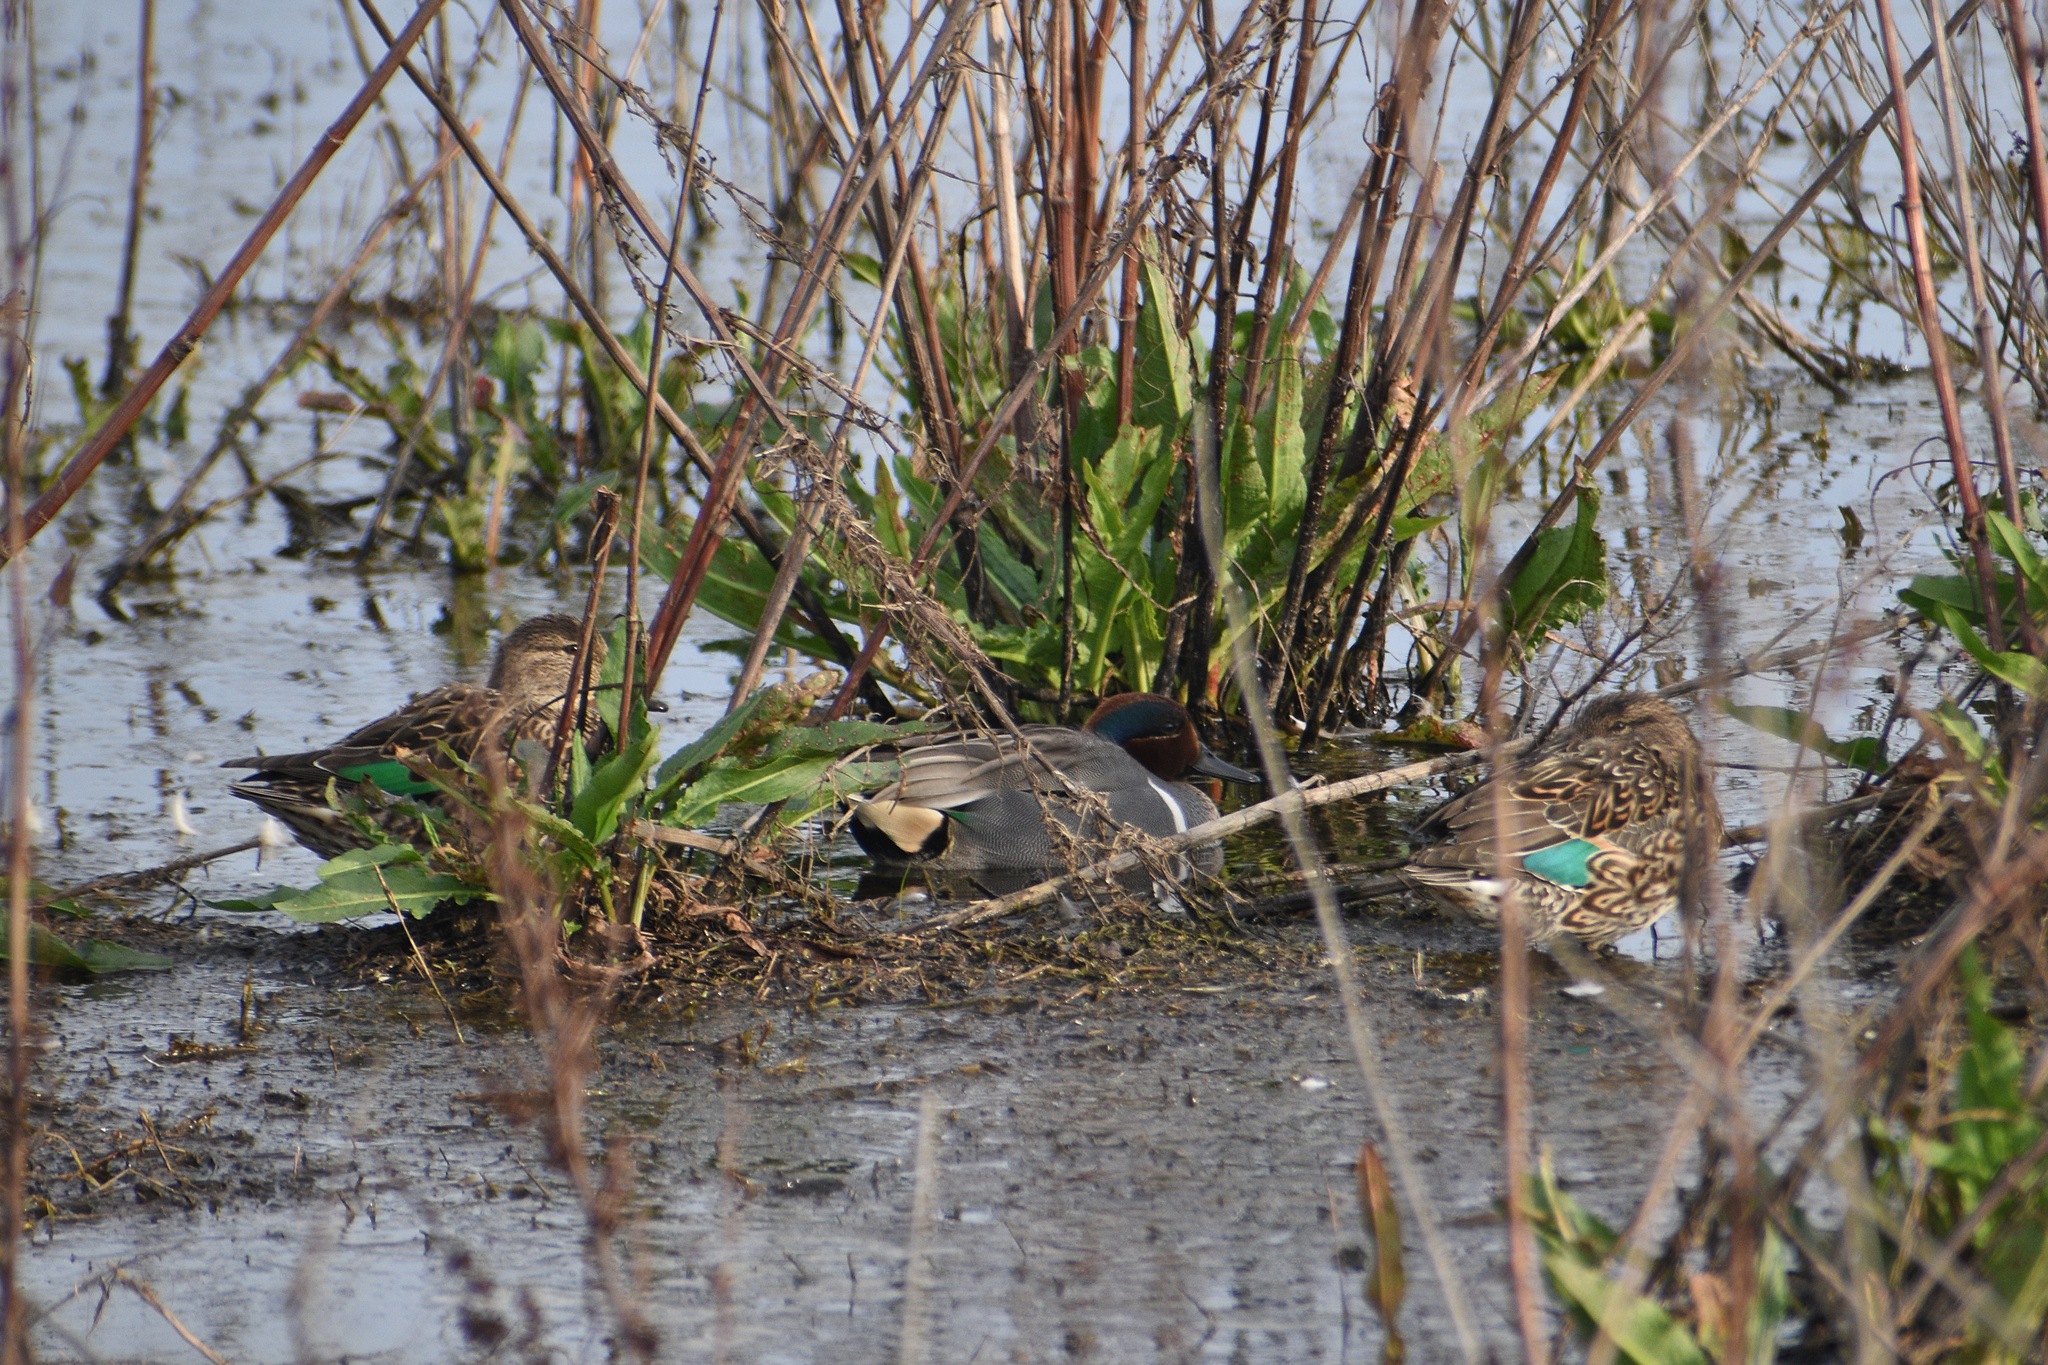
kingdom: Animalia
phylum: Chordata
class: Aves
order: Anseriformes
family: Anatidae
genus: Anas
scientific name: Anas crecca
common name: Eurasian teal
